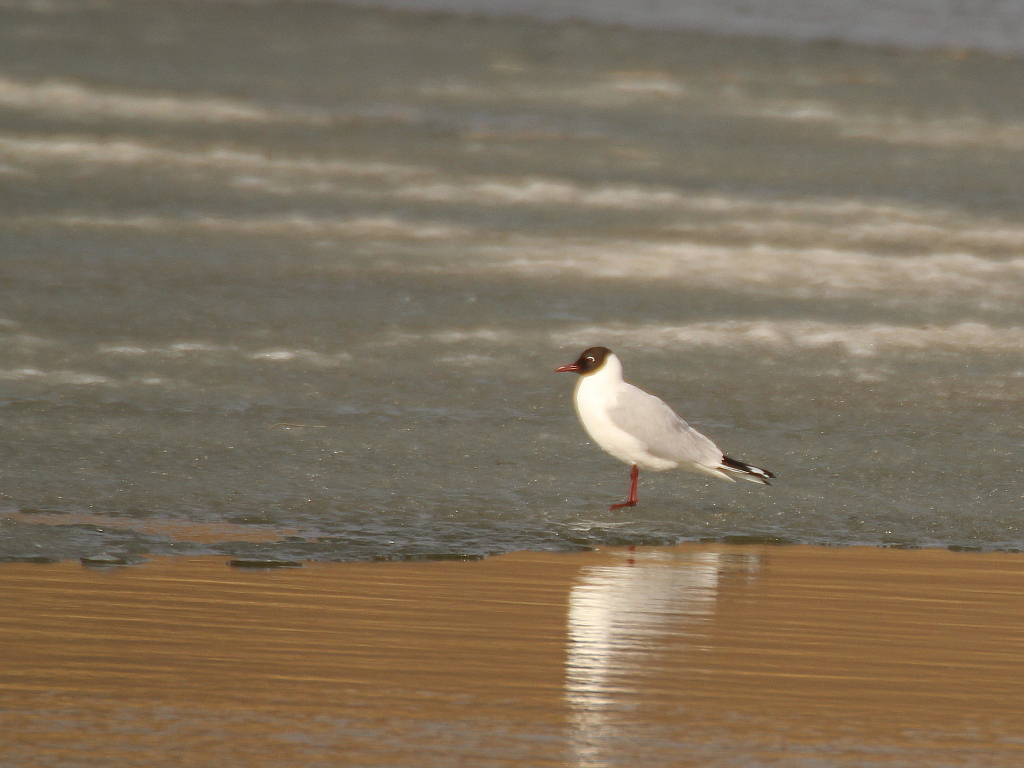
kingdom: Animalia
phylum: Chordata
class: Aves
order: Charadriiformes
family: Laridae
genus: Chroicocephalus
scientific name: Chroicocephalus ridibundus
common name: Black-headed gull
